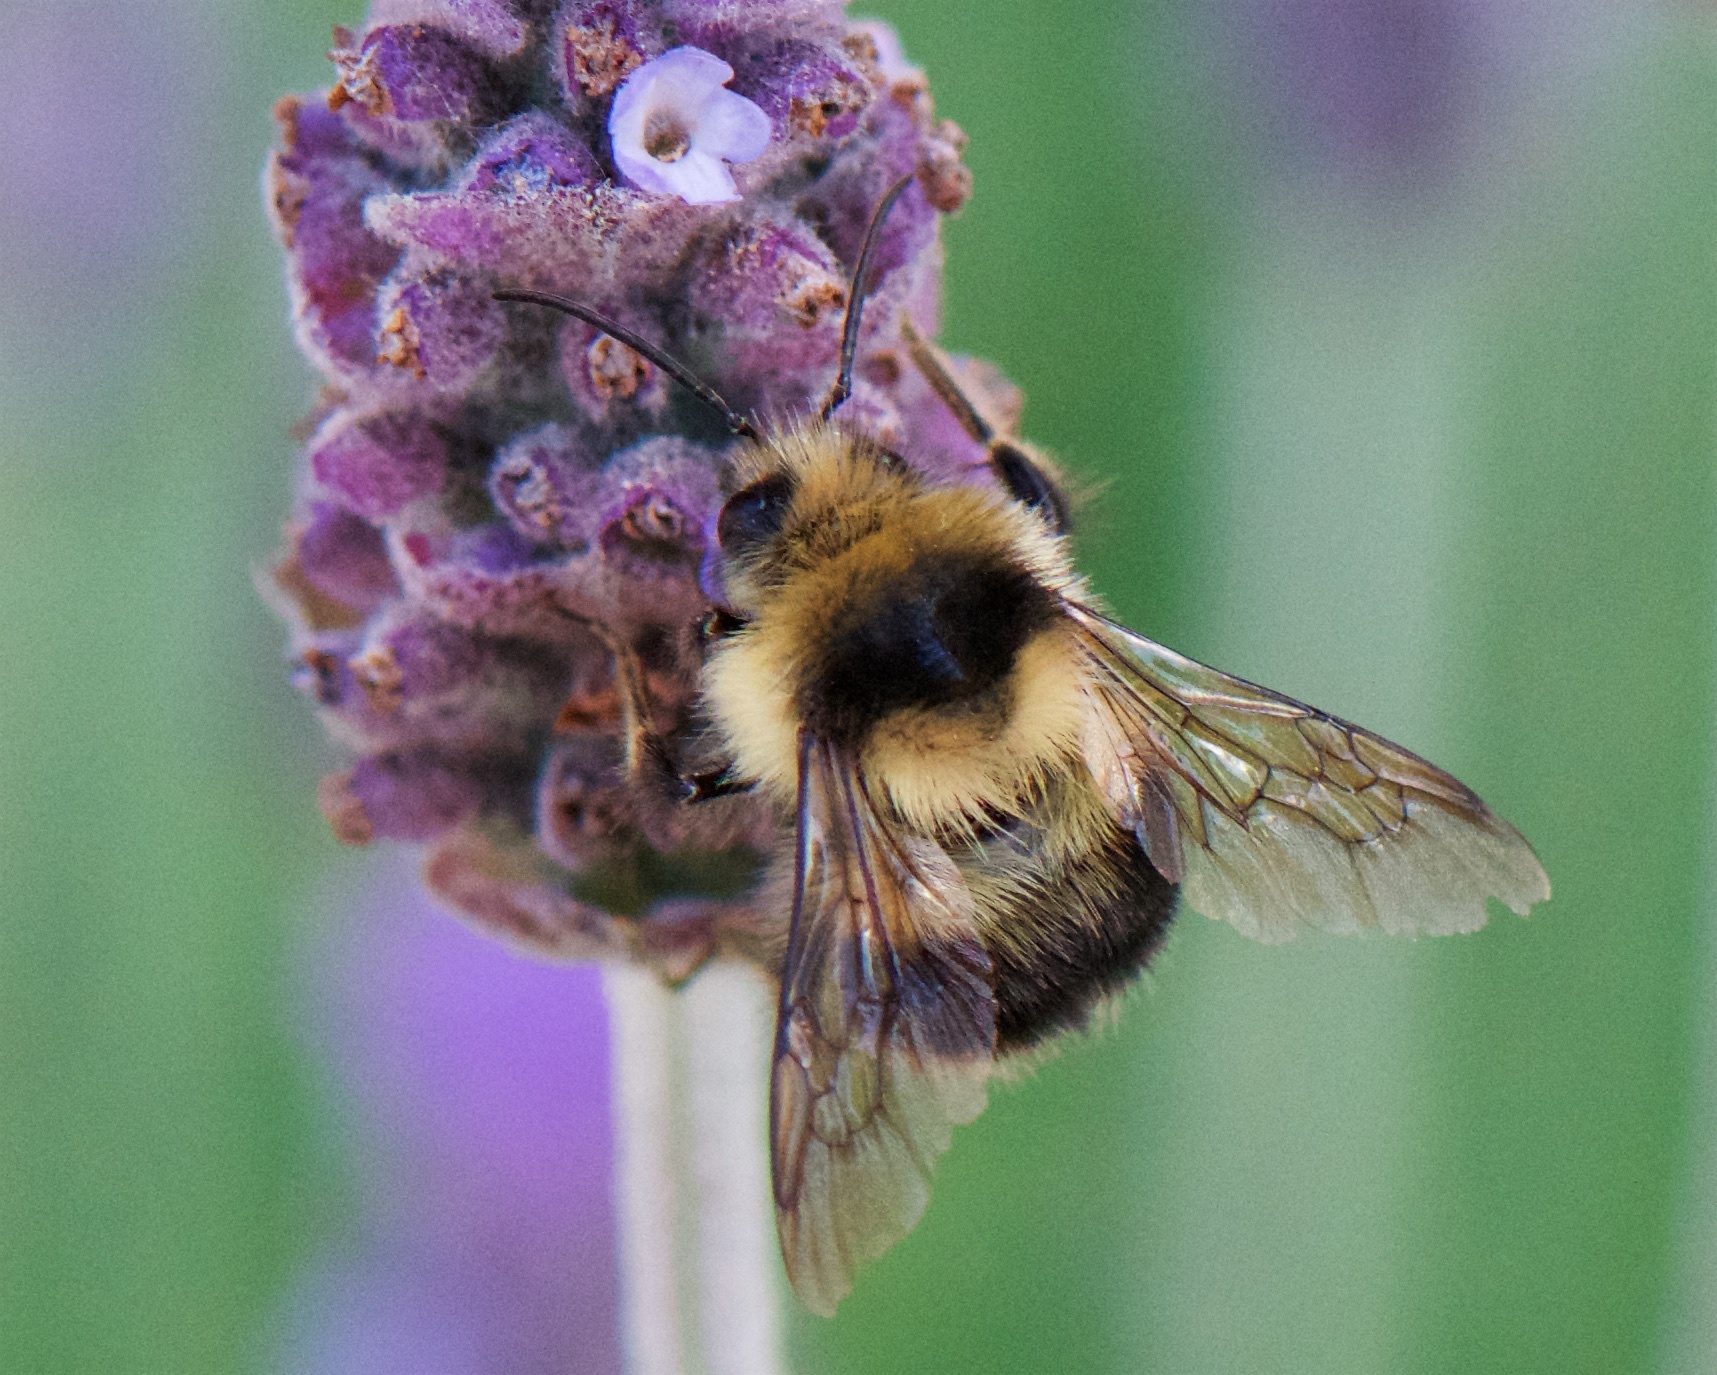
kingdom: Animalia
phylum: Arthropoda
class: Insecta
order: Hymenoptera
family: Apidae
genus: Bombus
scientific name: Bombus melanopygus
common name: Black tail bumble bee
